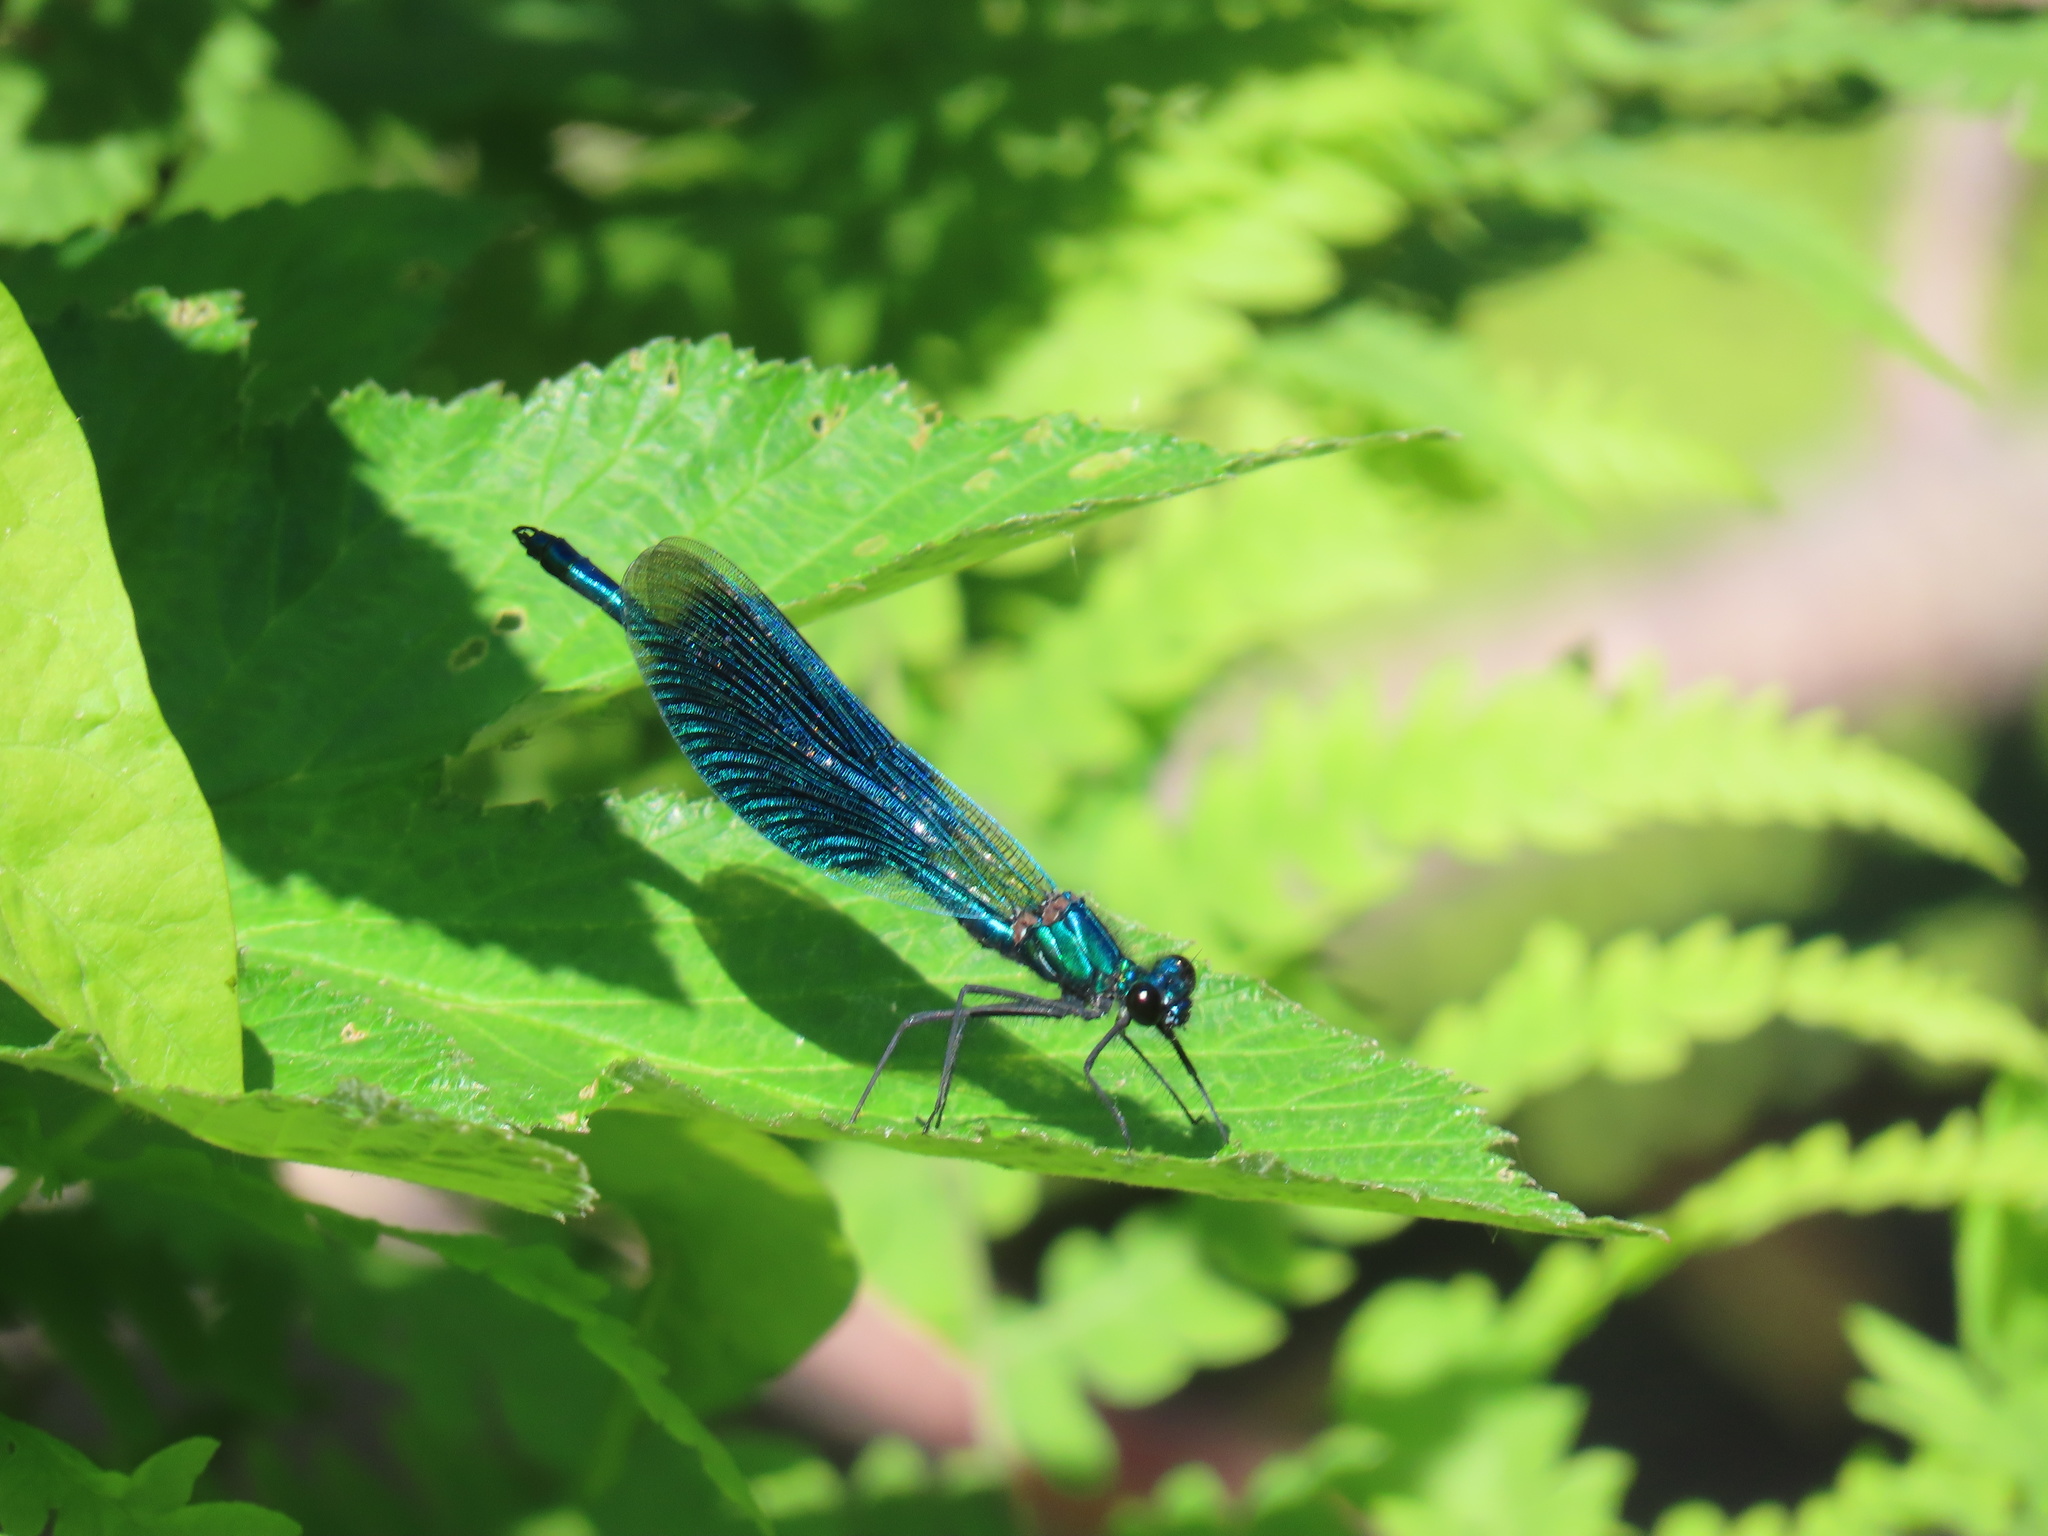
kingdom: Animalia
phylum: Arthropoda
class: Insecta
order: Odonata
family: Calopterygidae
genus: Calopteryx
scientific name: Calopteryx splendens
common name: Banded demoiselle
